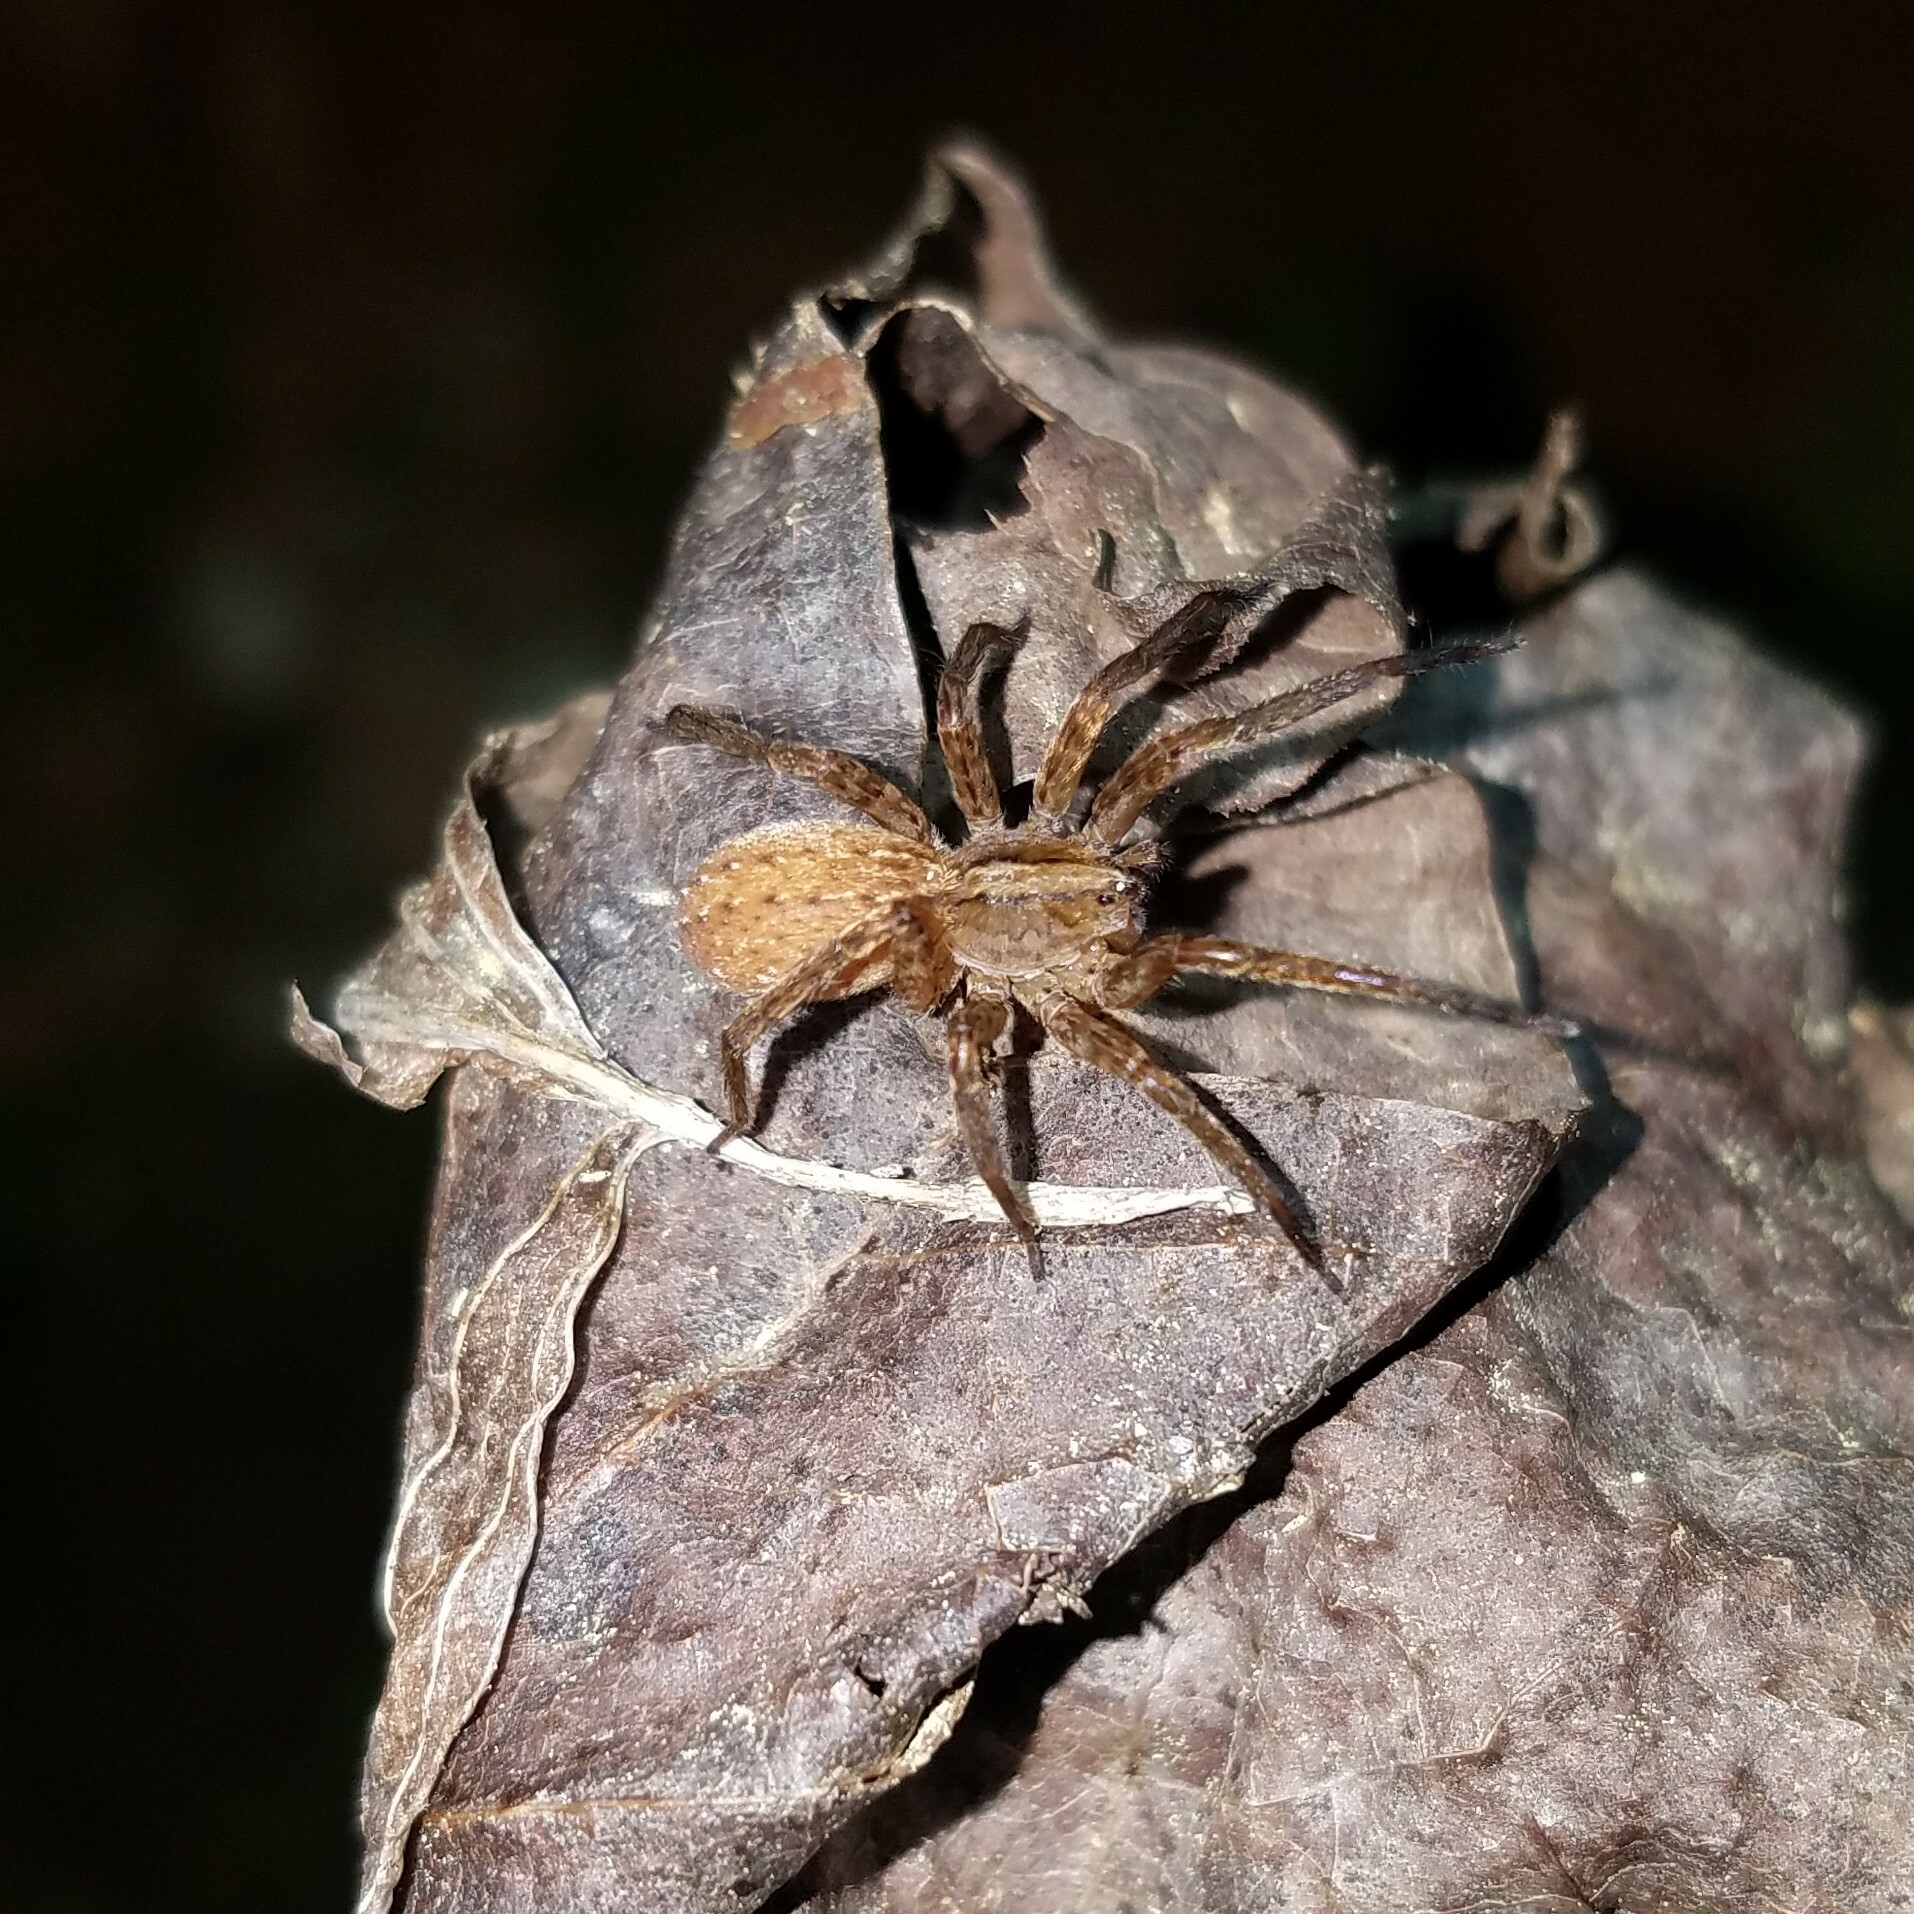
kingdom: Animalia
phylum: Arthropoda
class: Arachnida
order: Araneae
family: Ctenidae
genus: Anahita
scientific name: Anahita punctulata
